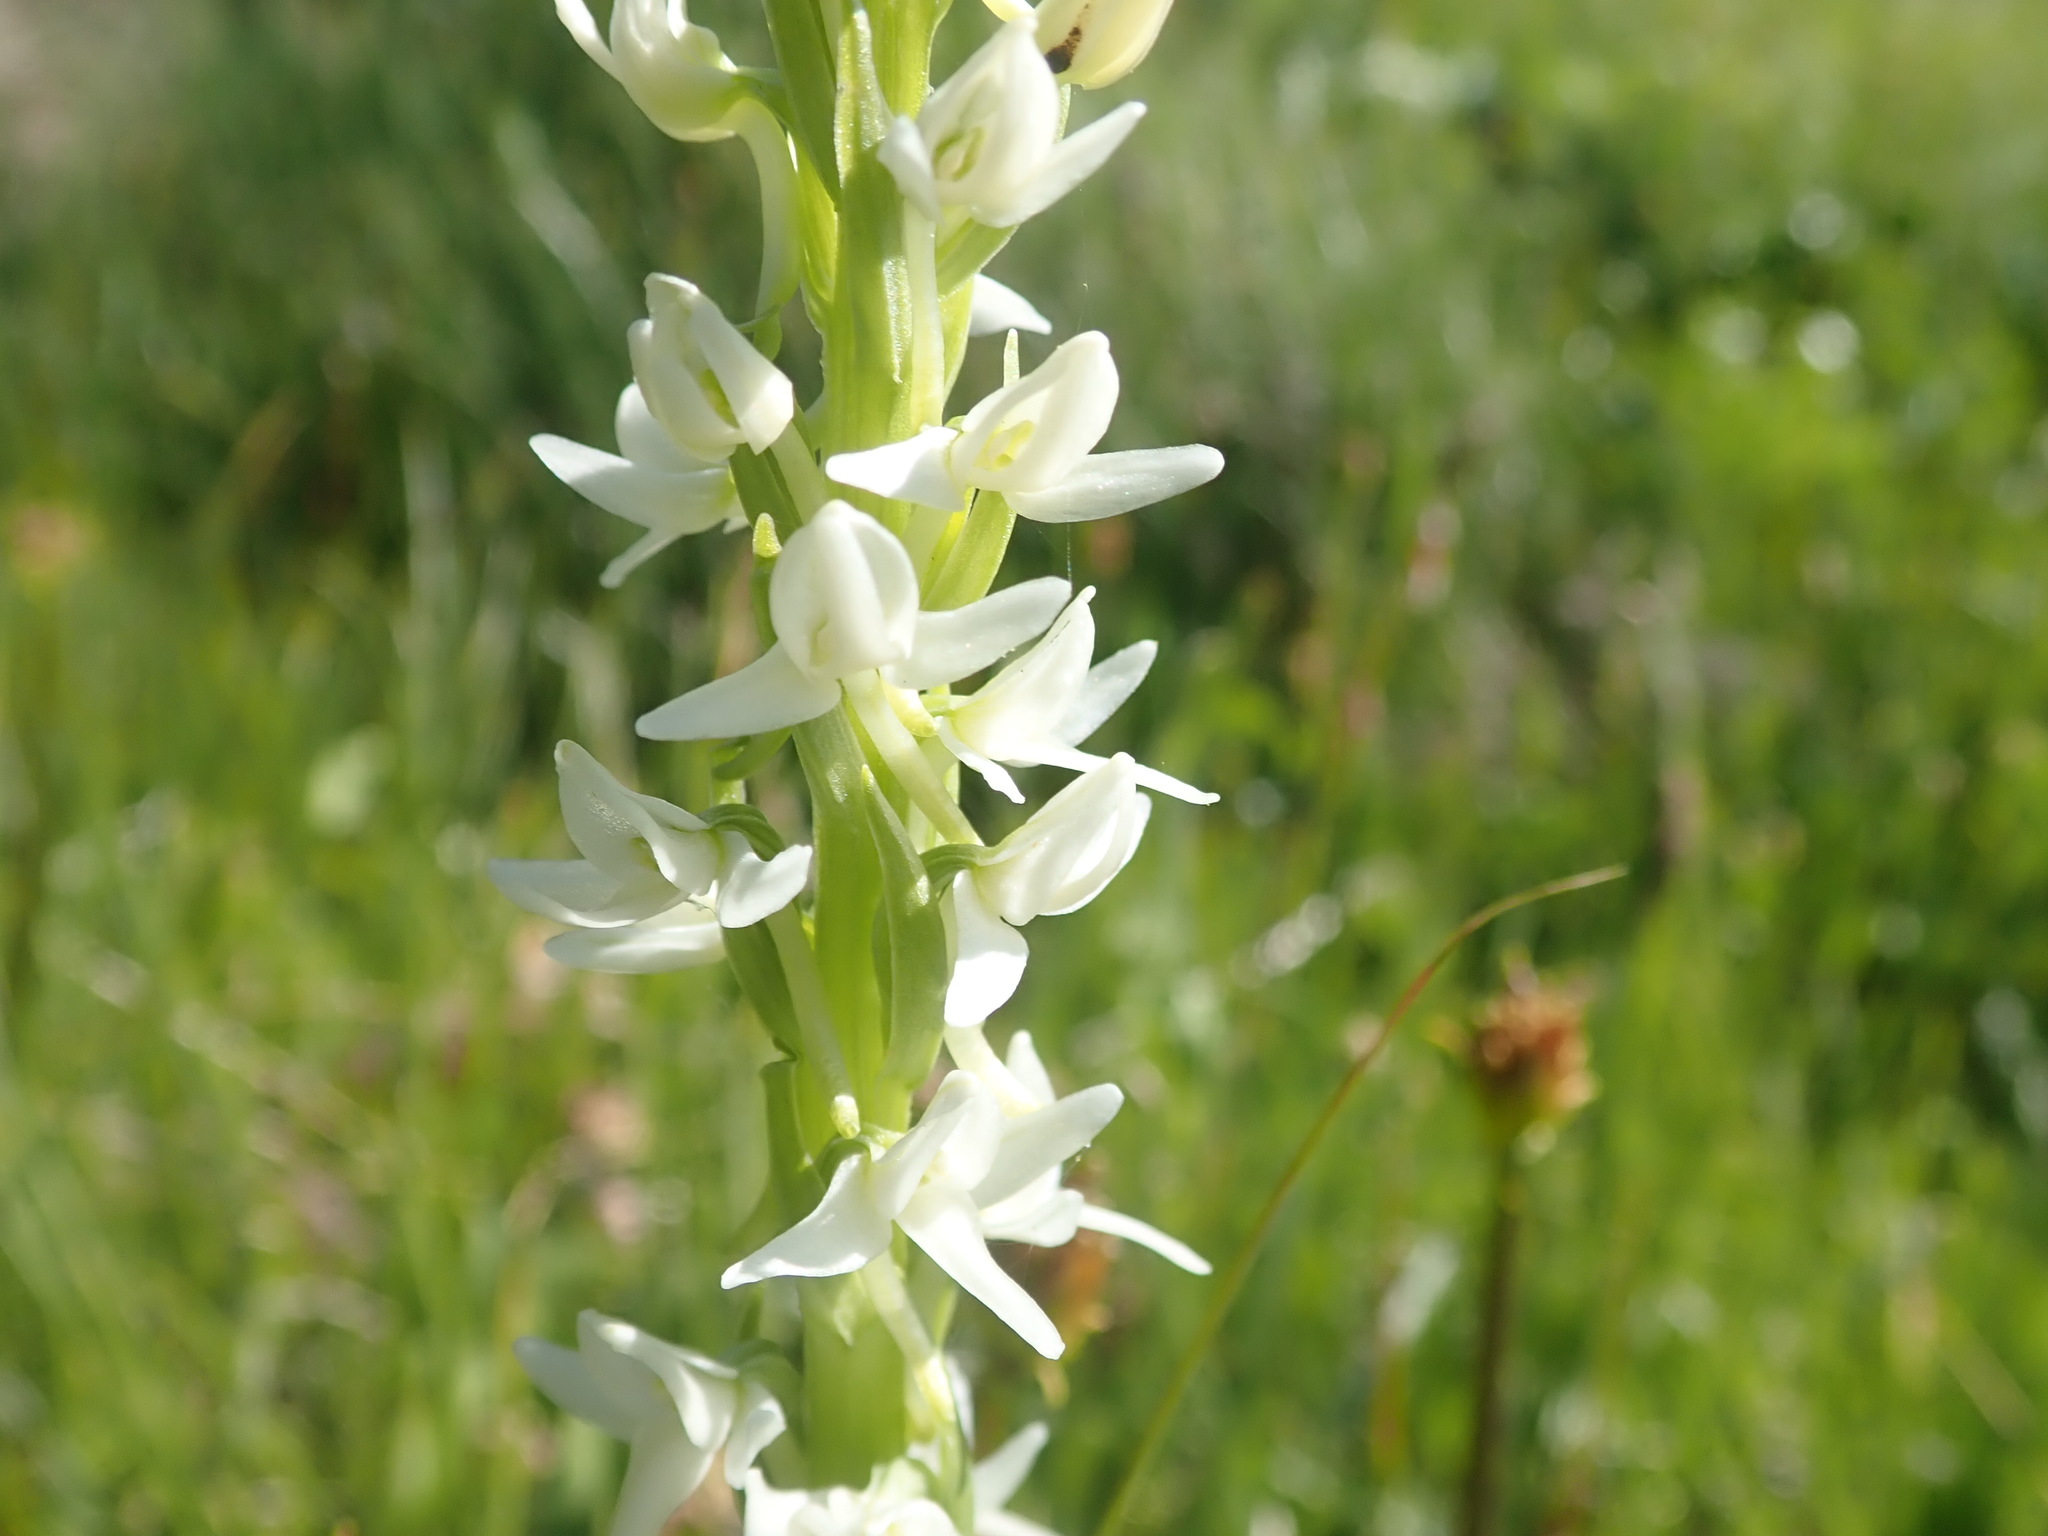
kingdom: Plantae
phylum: Tracheophyta
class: Liliopsida
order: Asparagales
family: Orchidaceae
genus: Platanthera
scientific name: Platanthera dilatata
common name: Bog candles
